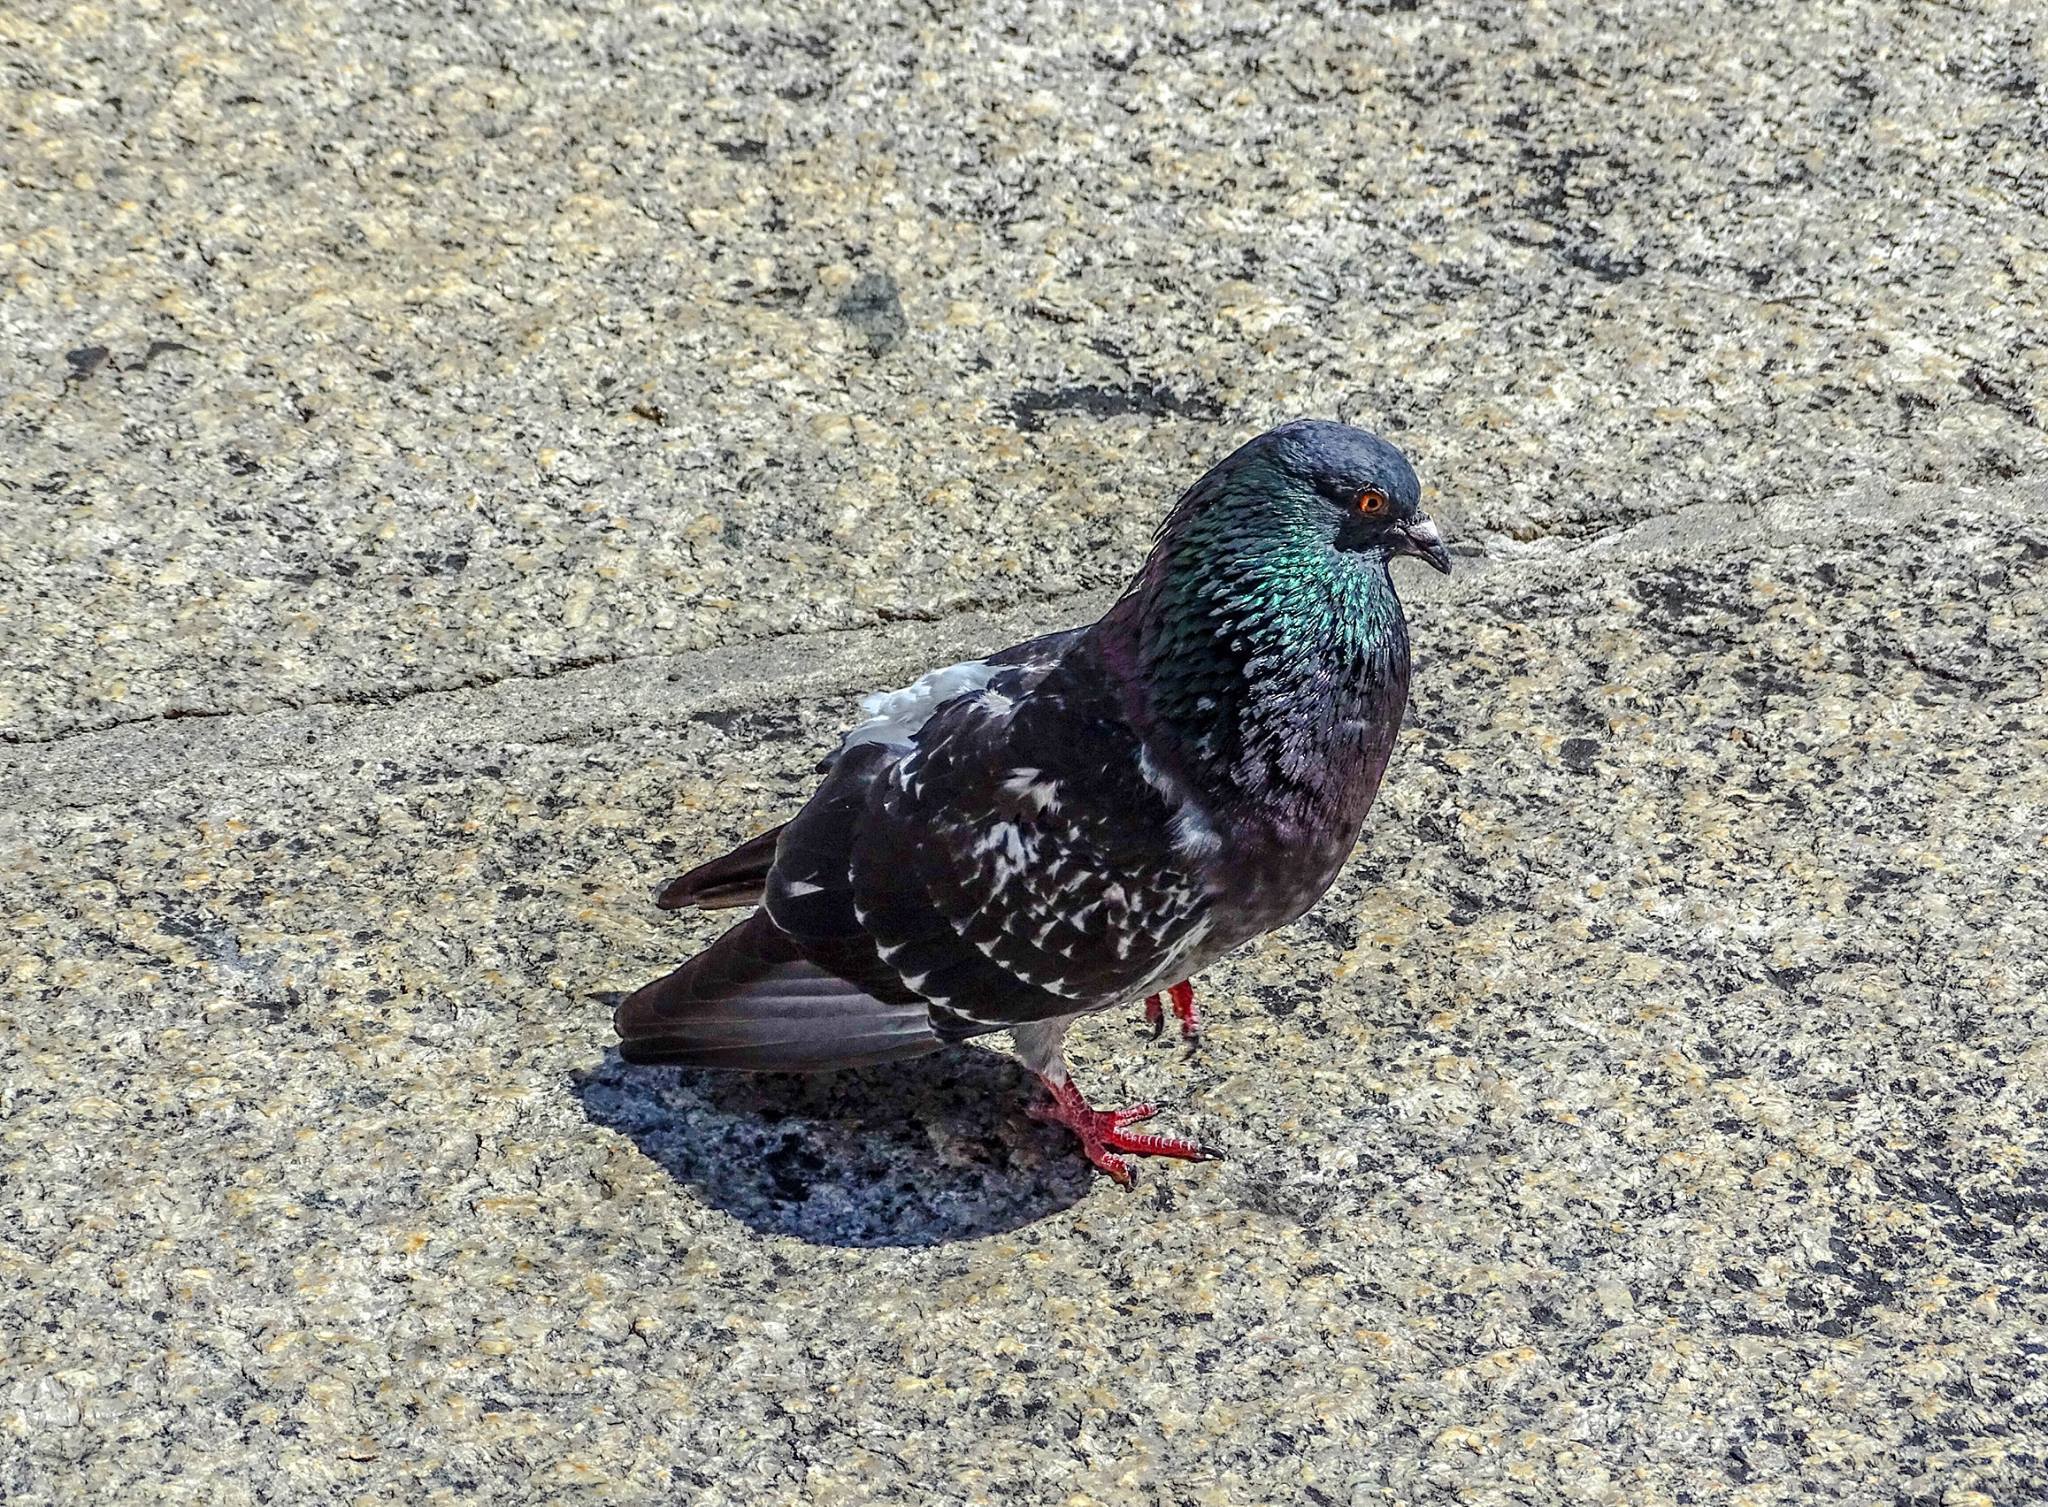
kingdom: Animalia
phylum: Chordata
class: Aves
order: Columbiformes
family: Columbidae
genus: Columba
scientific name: Columba livia
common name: Rock pigeon
